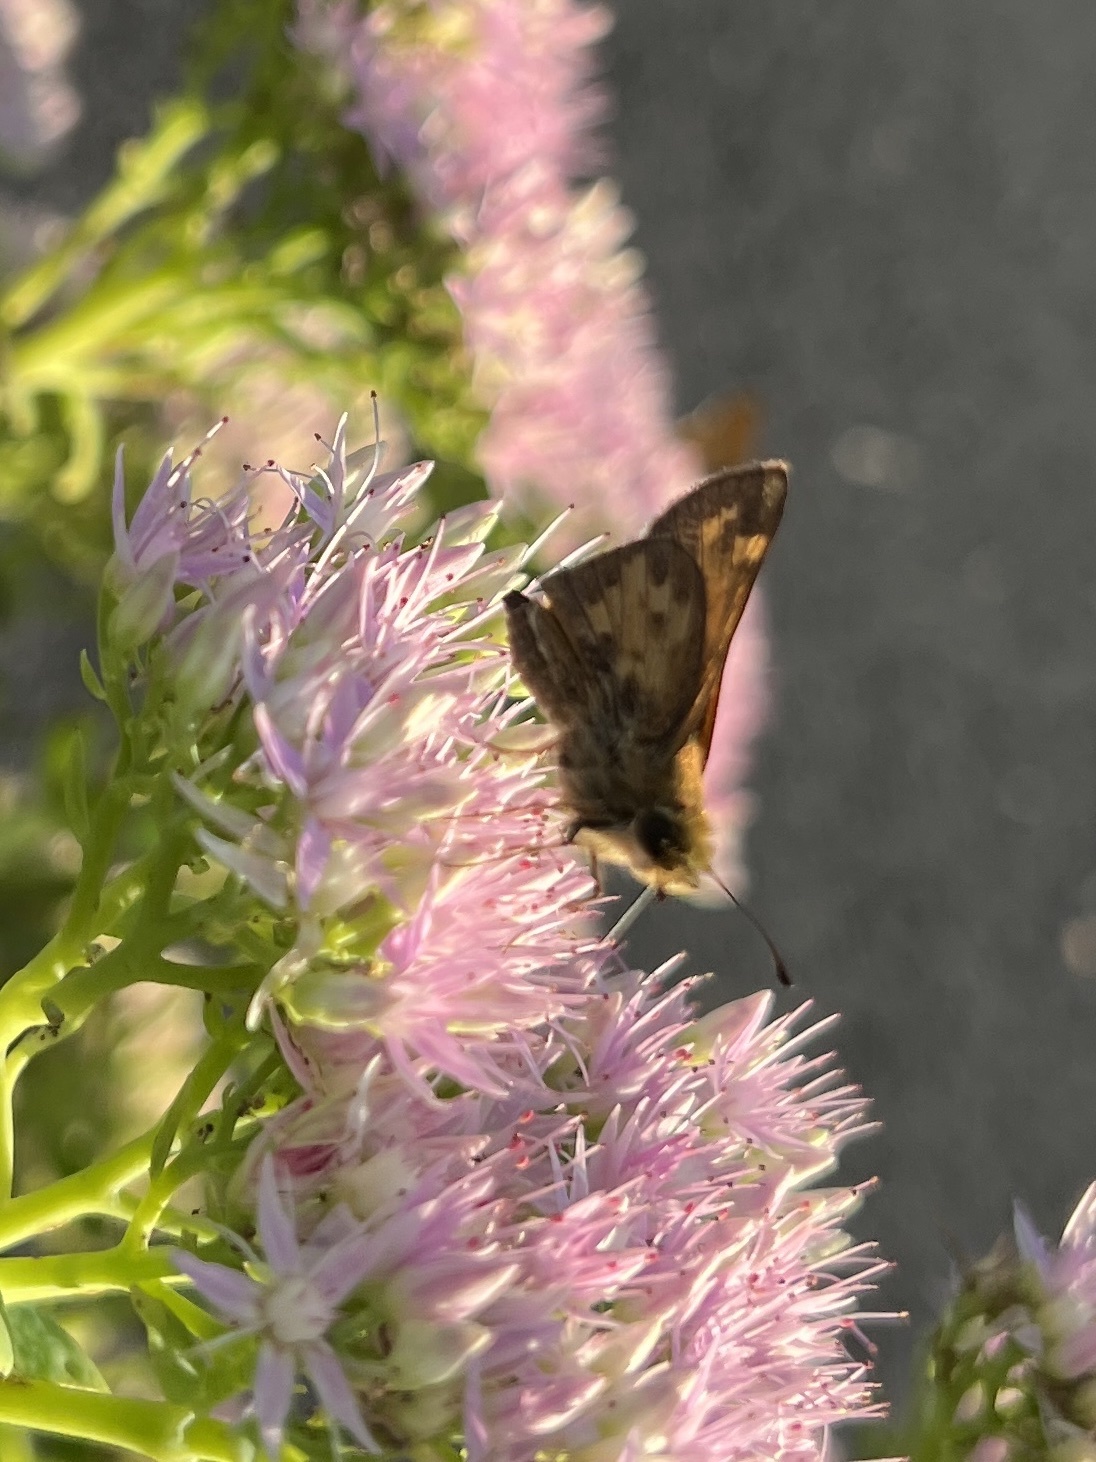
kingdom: Animalia
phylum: Arthropoda
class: Insecta
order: Lepidoptera
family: Hesperiidae
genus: Polites
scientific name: Polites coras
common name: Peck's skipper
